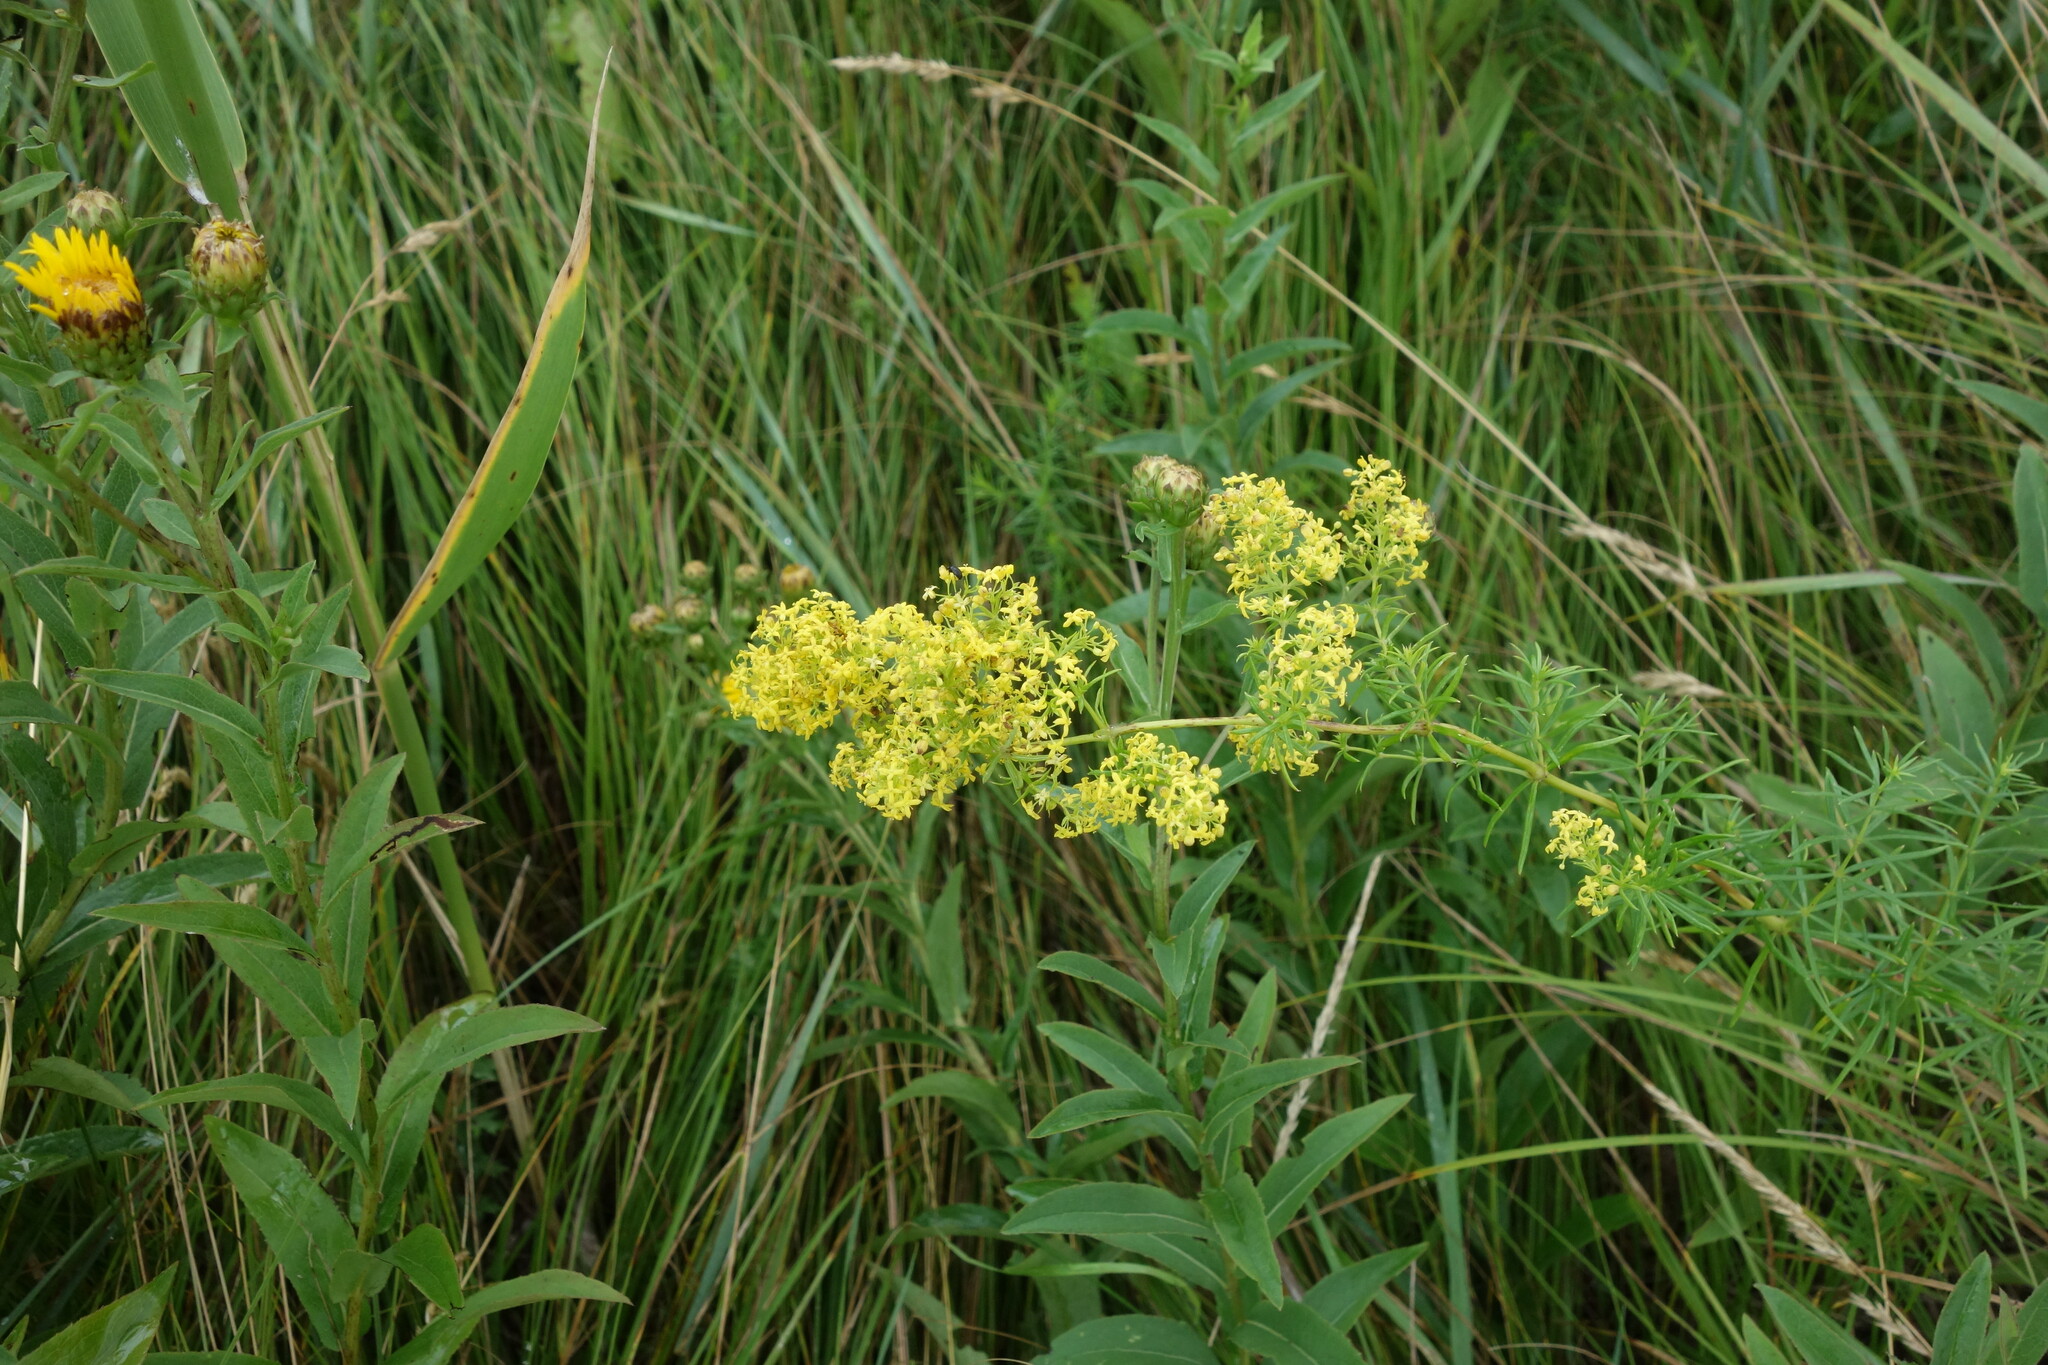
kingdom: Plantae
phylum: Tracheophyta
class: Magnoliopsida
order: Gentianales
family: Rubiaceae
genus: Galium
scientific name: Galium verum
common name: Lady's bedstraw
